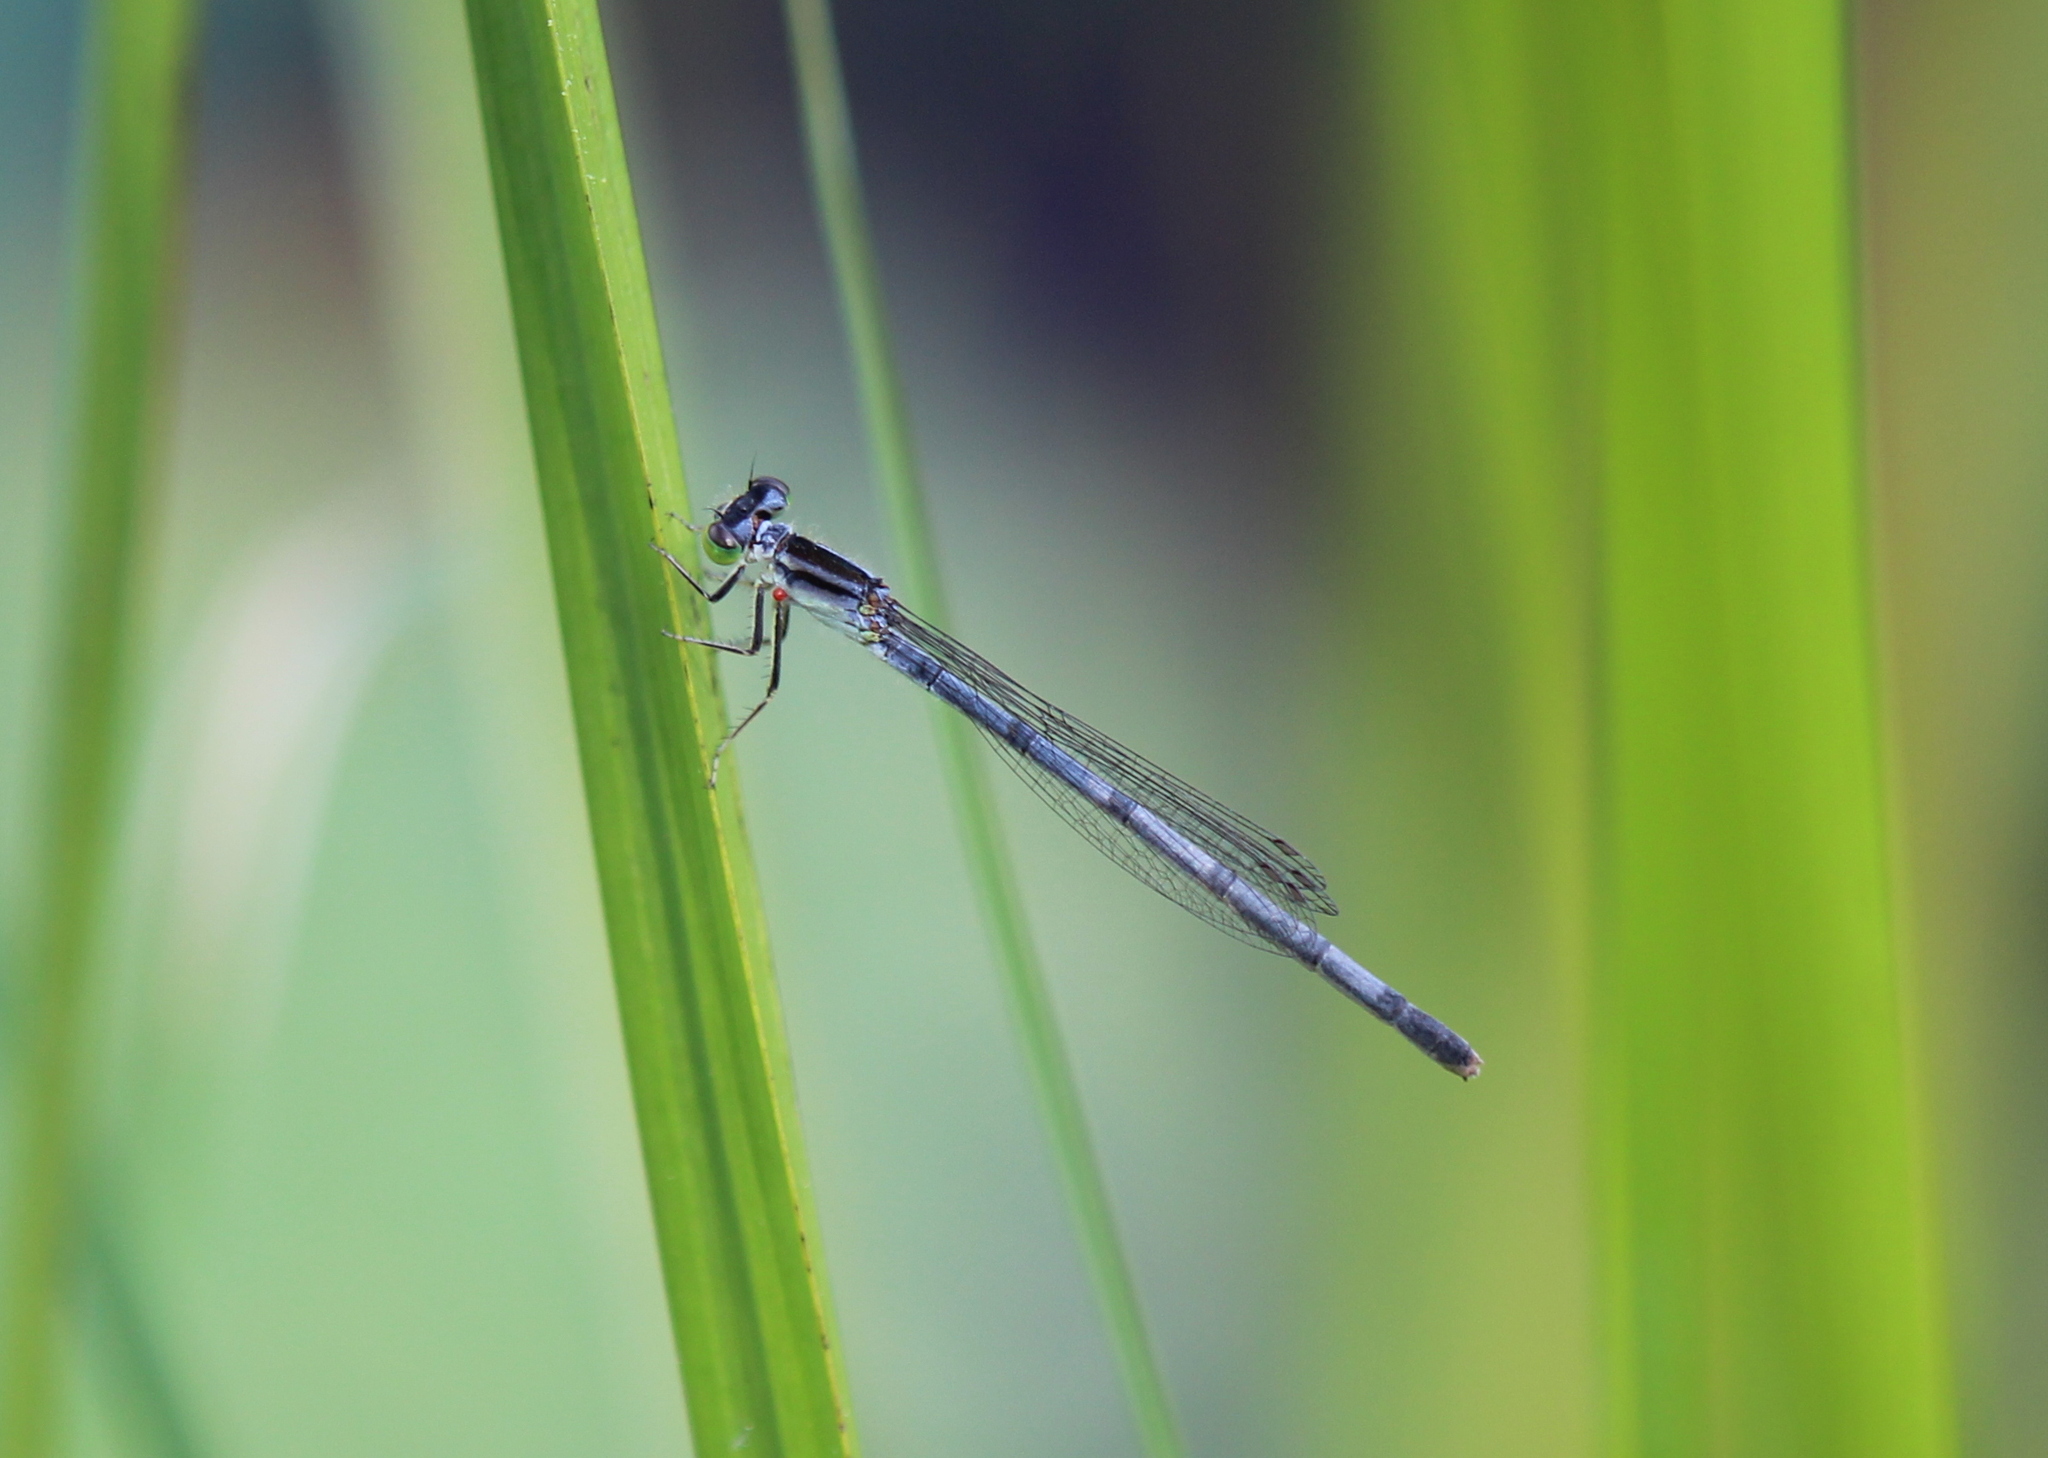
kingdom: Animalia
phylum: Arthropoda
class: Insecta
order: Odonata
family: Coenagrionidae
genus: Ischnura
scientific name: Ischnura verticalis
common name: Eastern forktail
